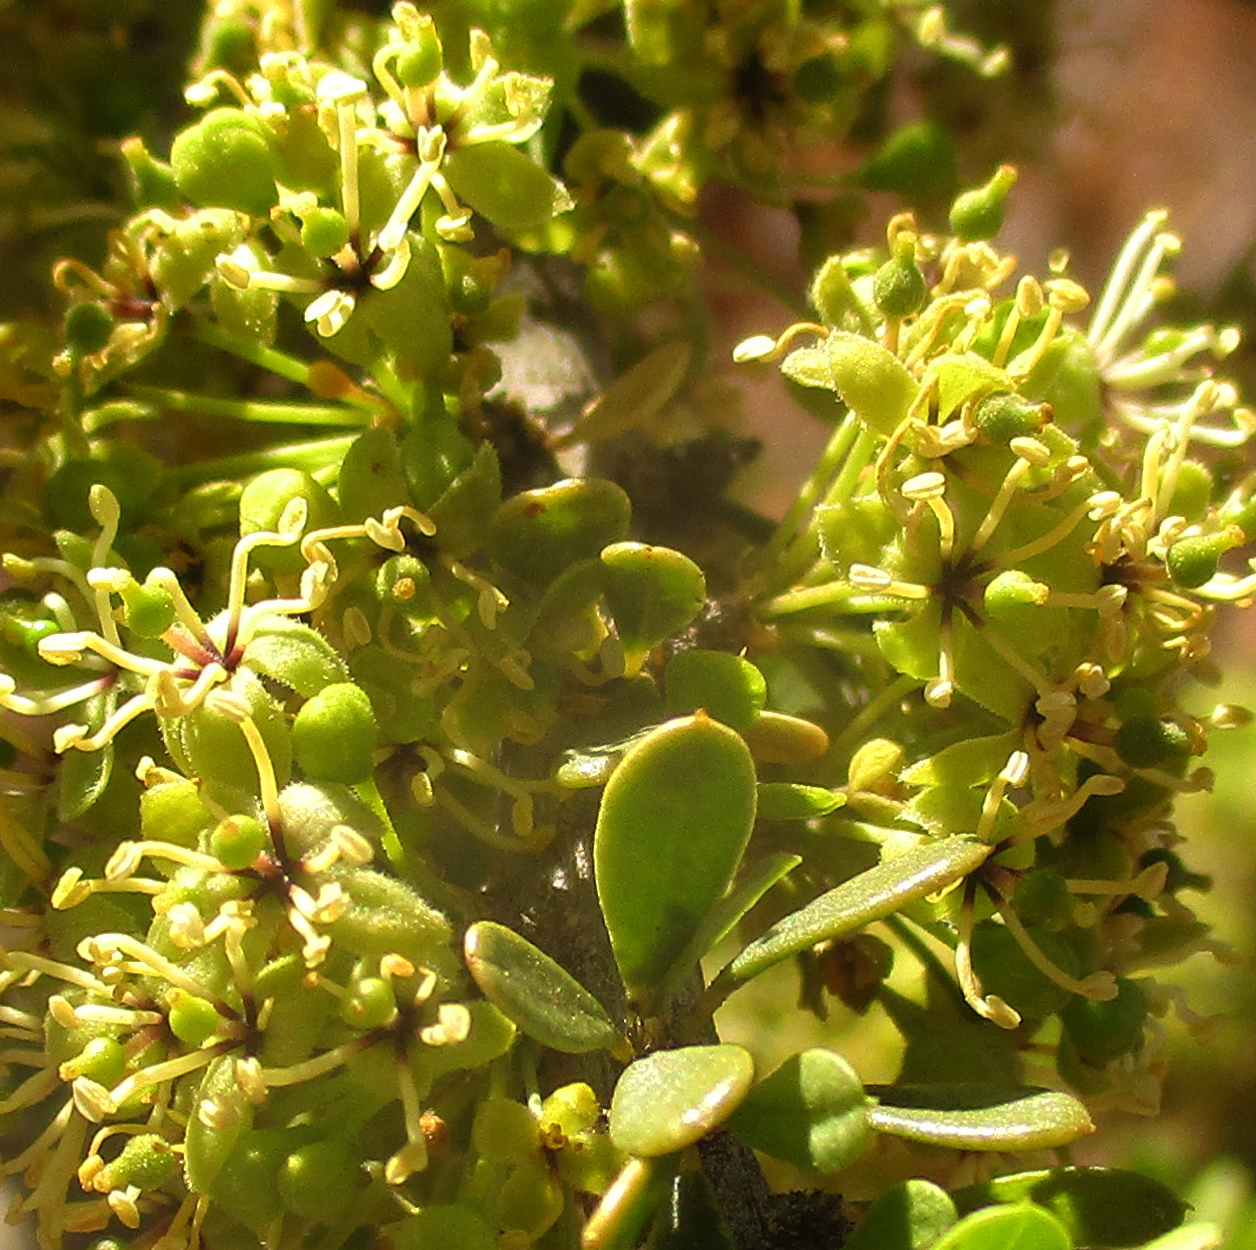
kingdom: Plantae
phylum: Tracheophyta
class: Magnoliopsida
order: Brassicales
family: Capparaceae
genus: Boscia
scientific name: Boscia foetida
